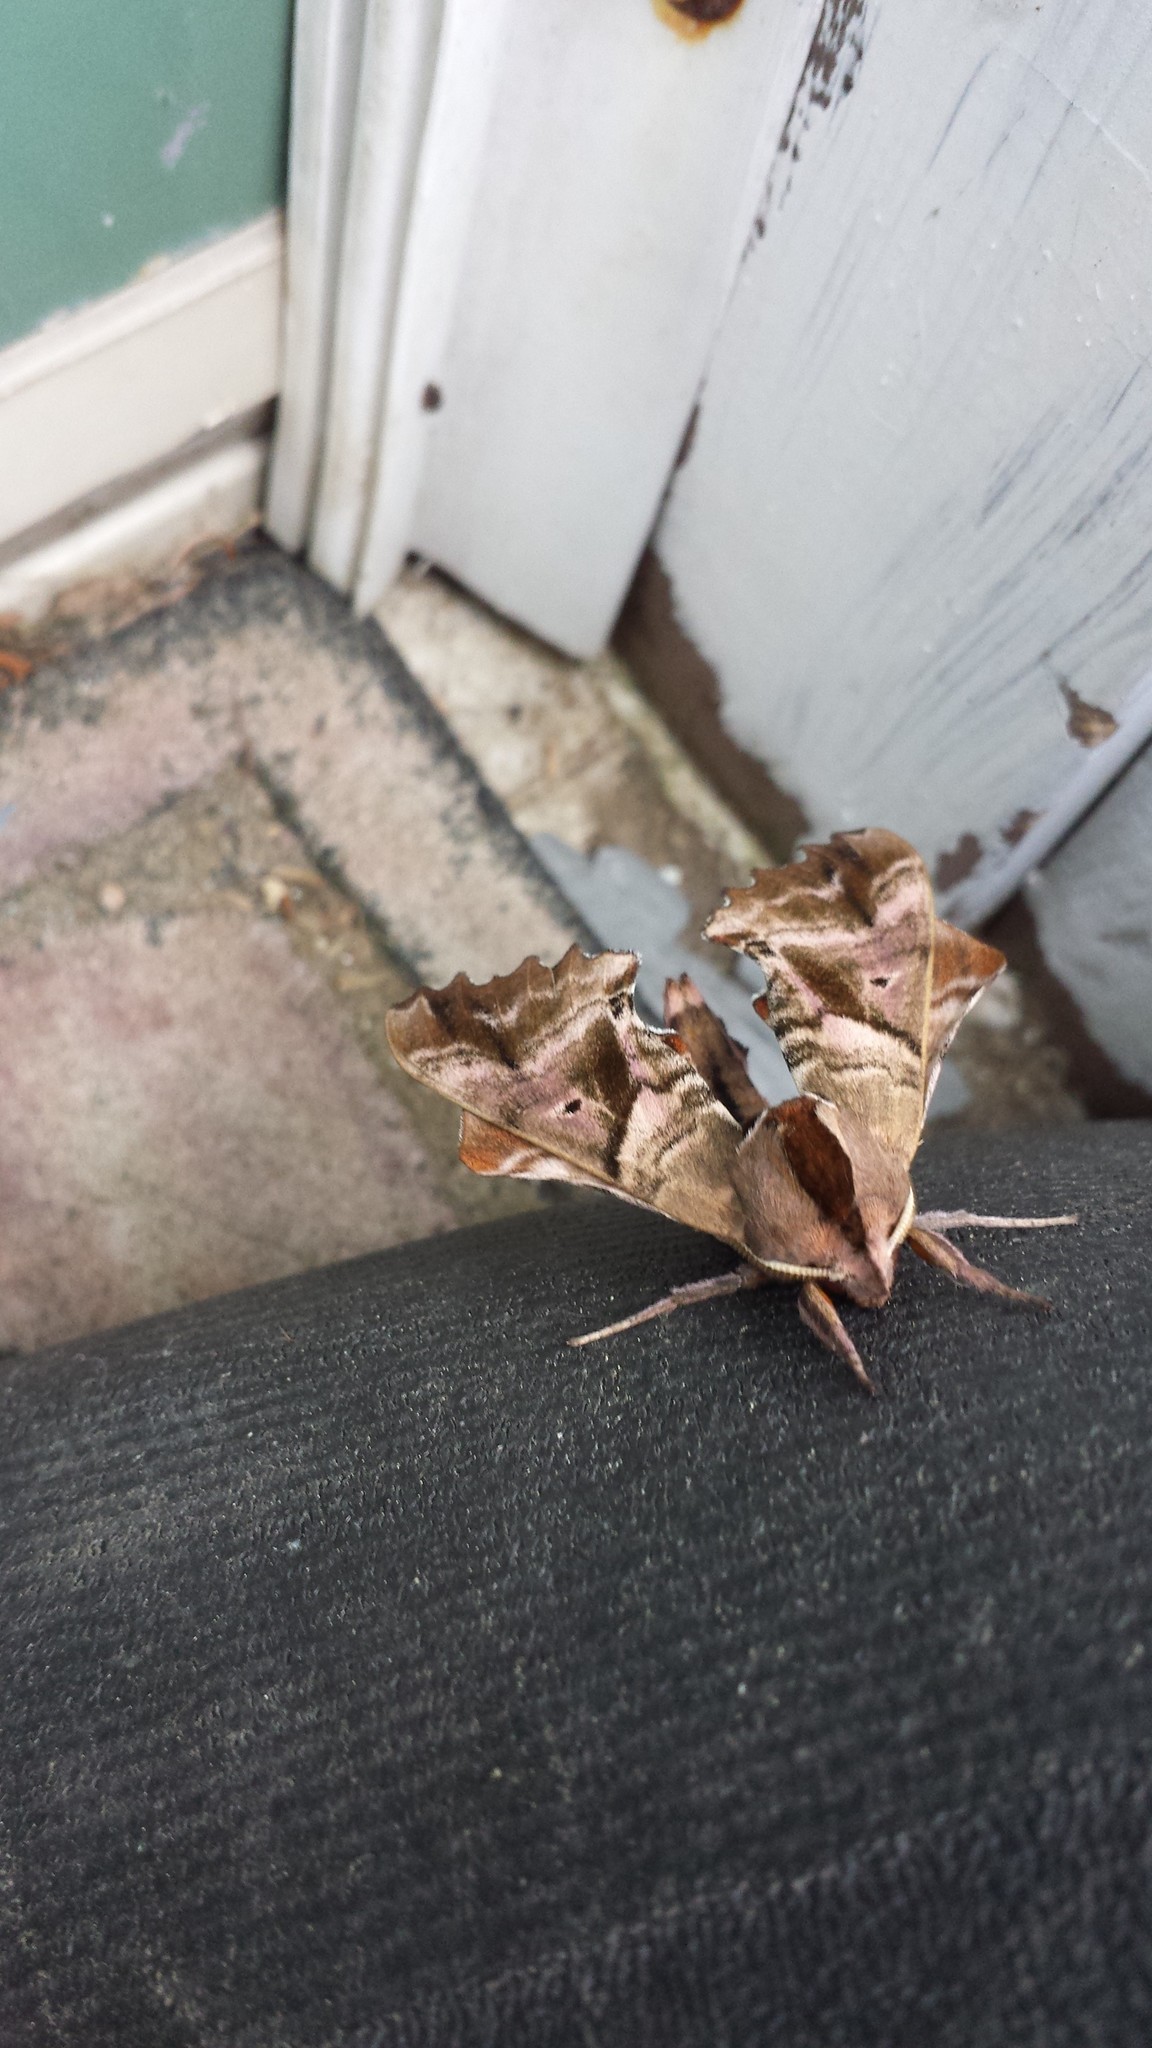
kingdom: Animalia
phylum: Arthropoda
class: Insecta
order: Lepidoptera
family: Sphingidae
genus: Paonias
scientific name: Paonias excaecata
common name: Blind-eyed sphinx
